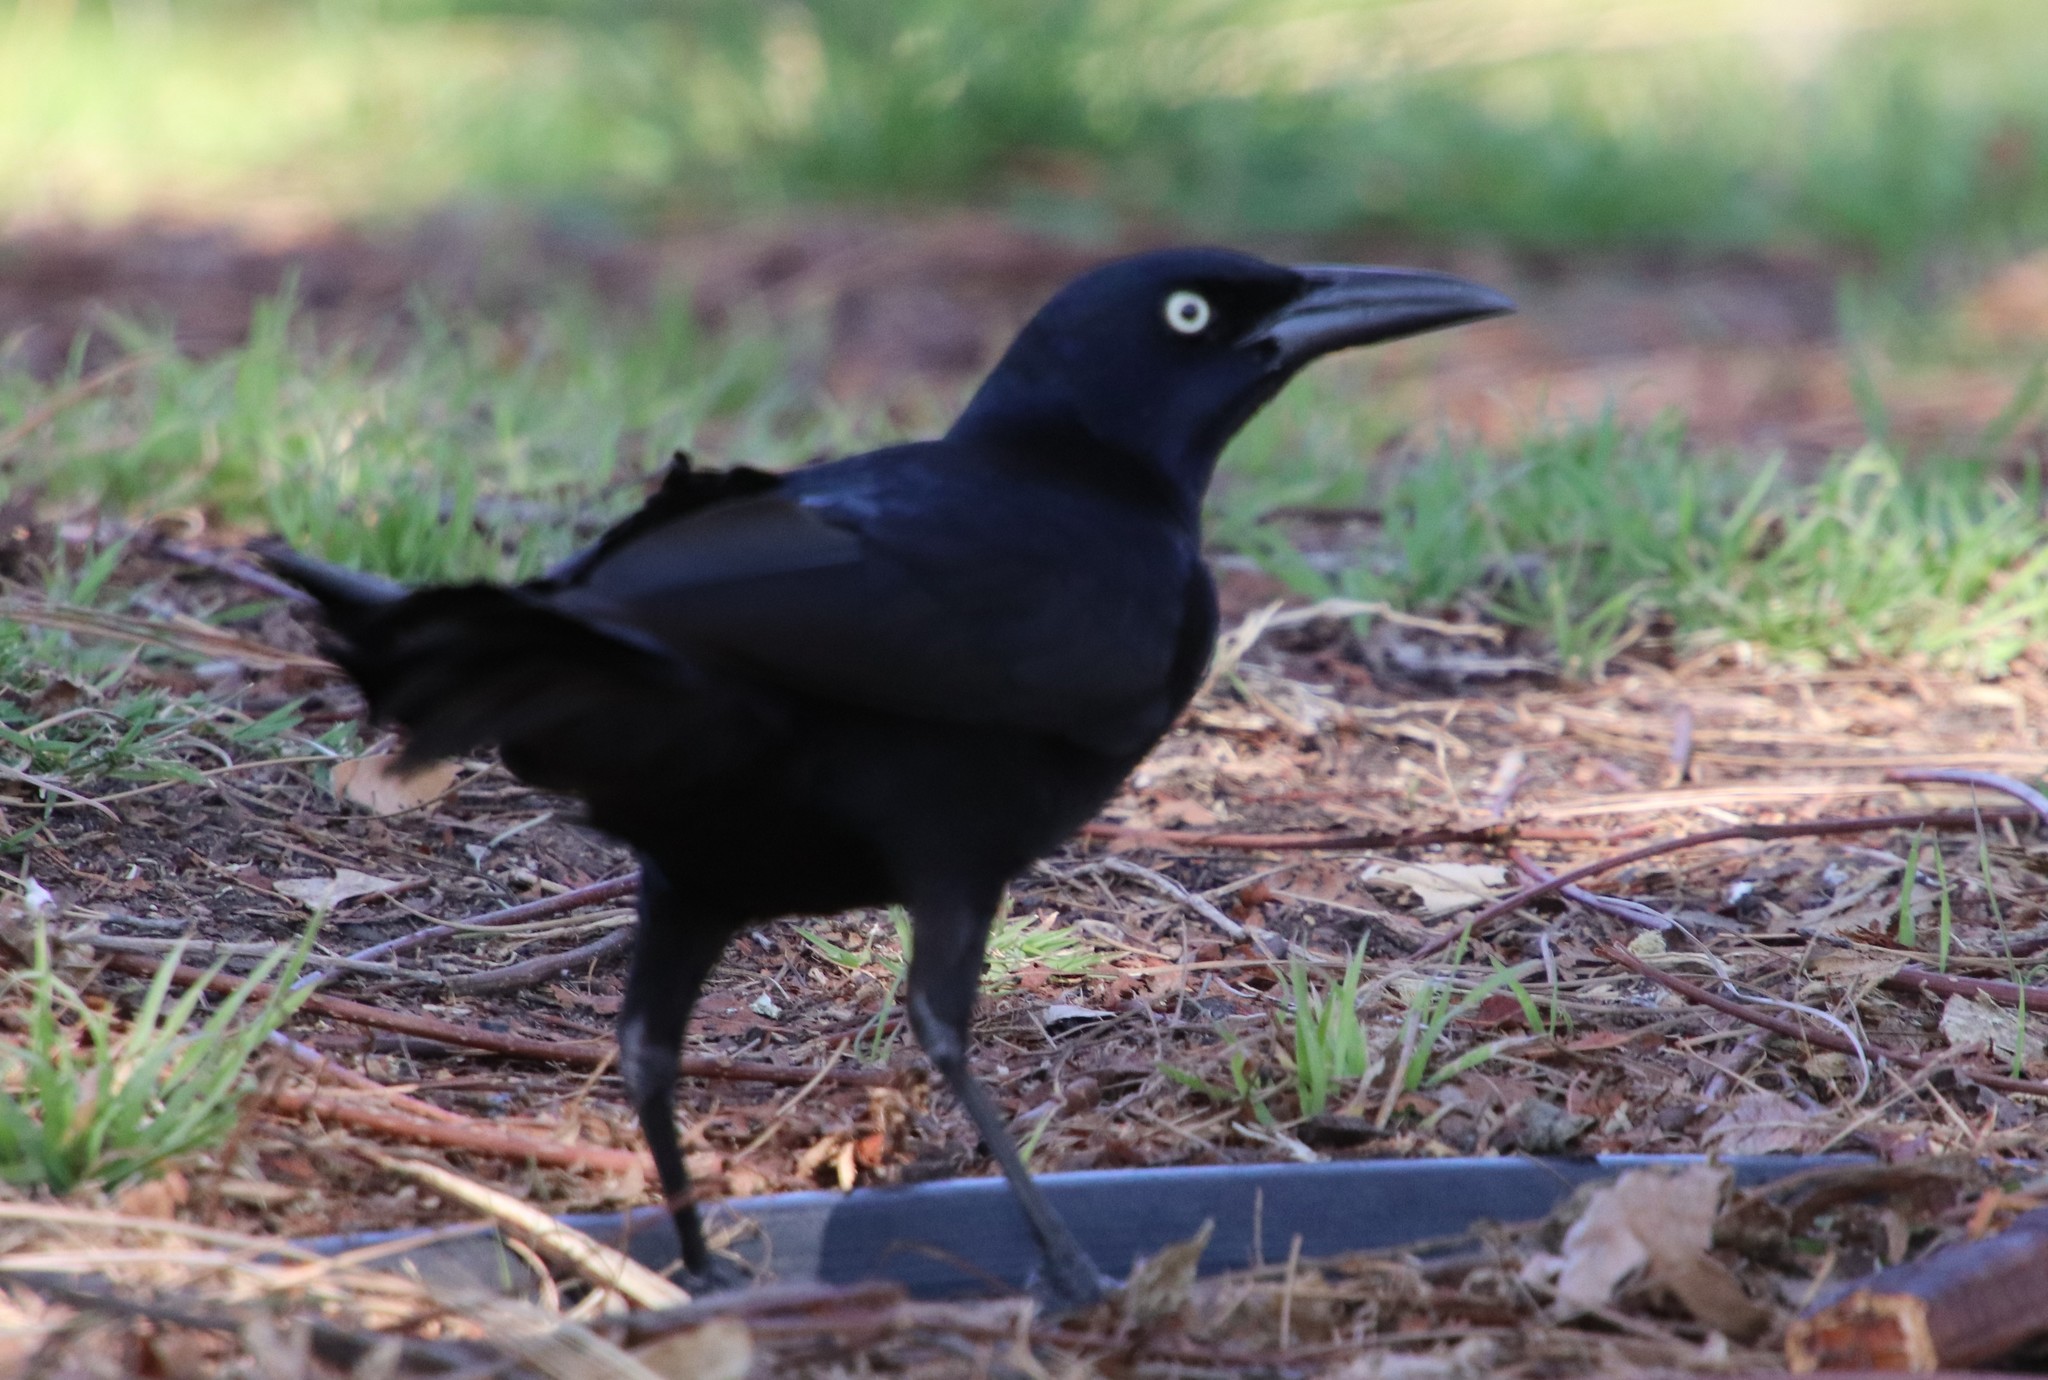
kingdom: Animalia
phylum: Chordata
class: Aves
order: Passeriformes
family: Icteridae
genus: Quiscalus
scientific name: Quiscalus mexicanus
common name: Great-tailed grackle
